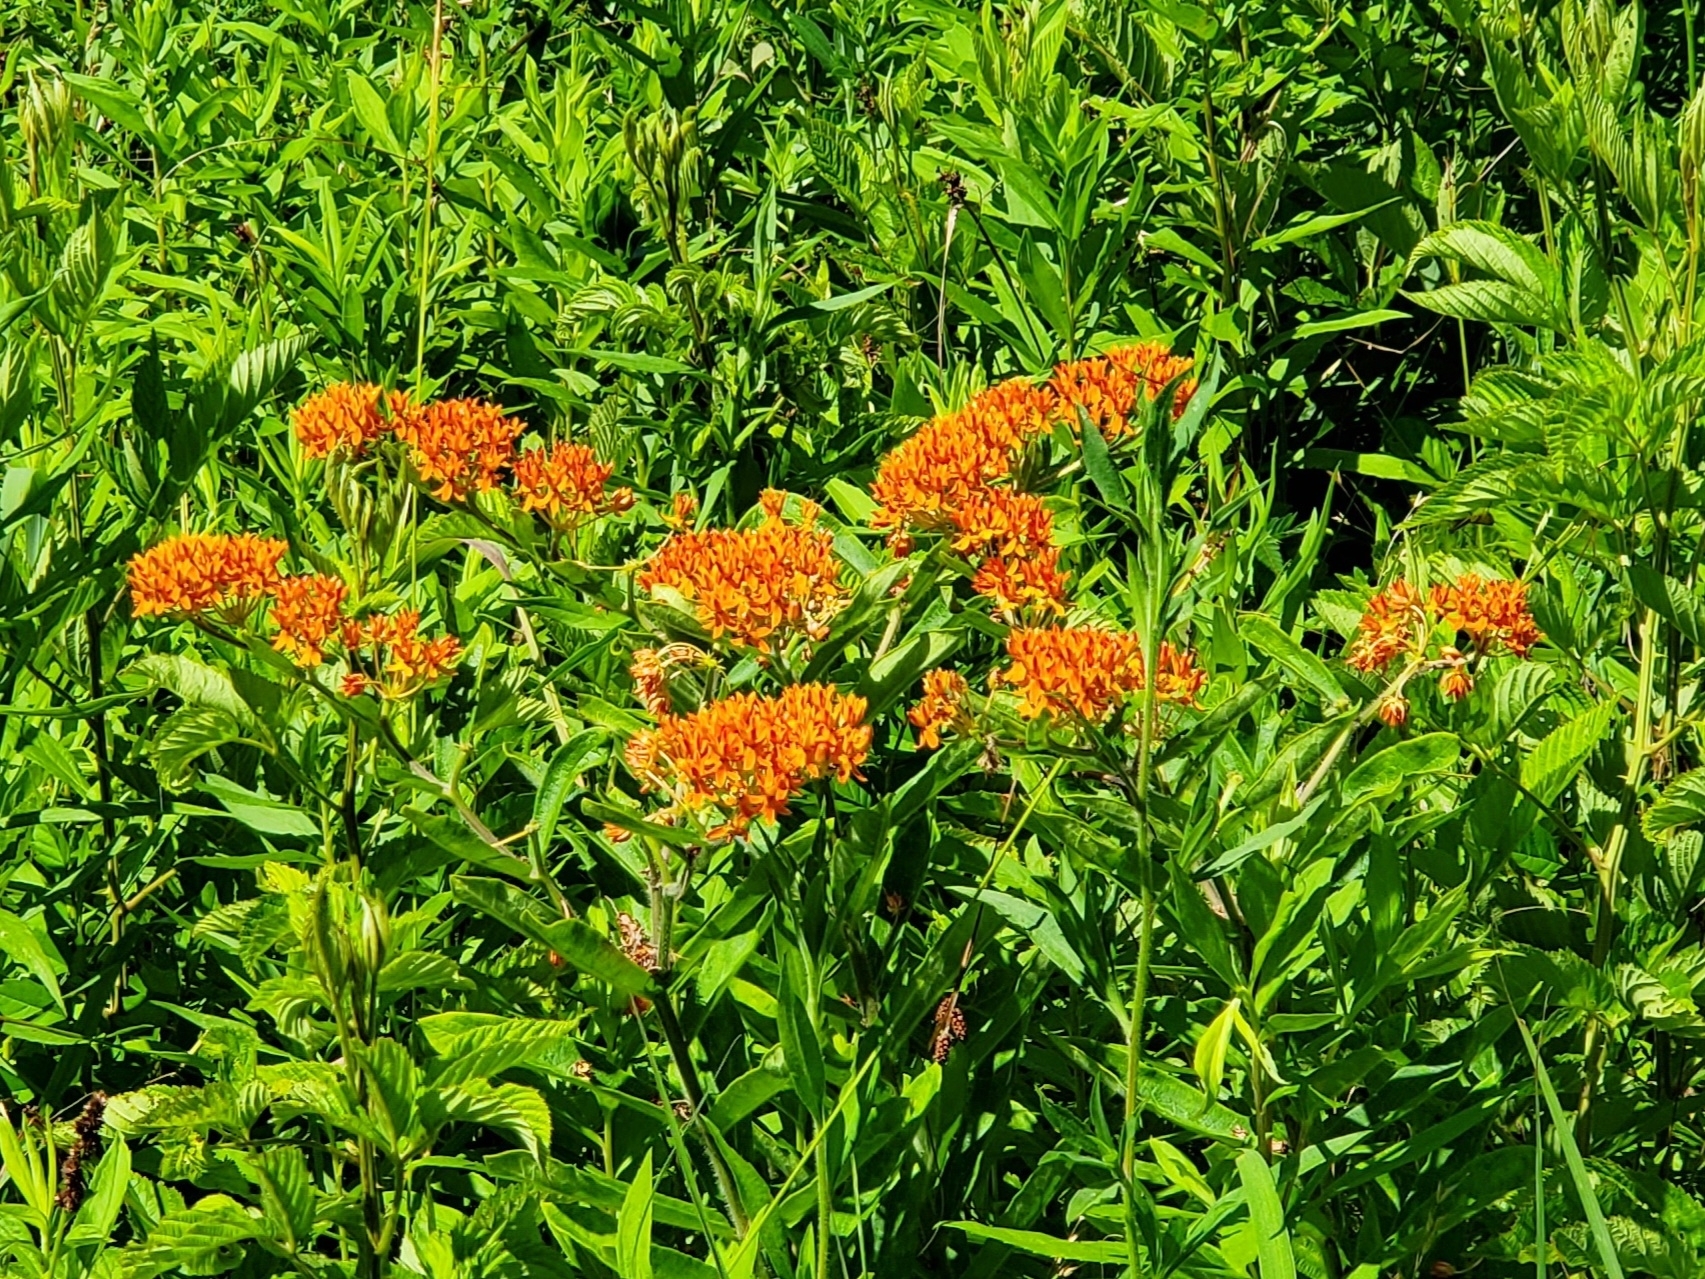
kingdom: Plantae
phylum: Tracheophyta
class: Magnoliopsida
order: Gentianales
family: Apocynaceae
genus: Asclepias
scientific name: Asclepias tuberosa
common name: Butterfly milkweed
